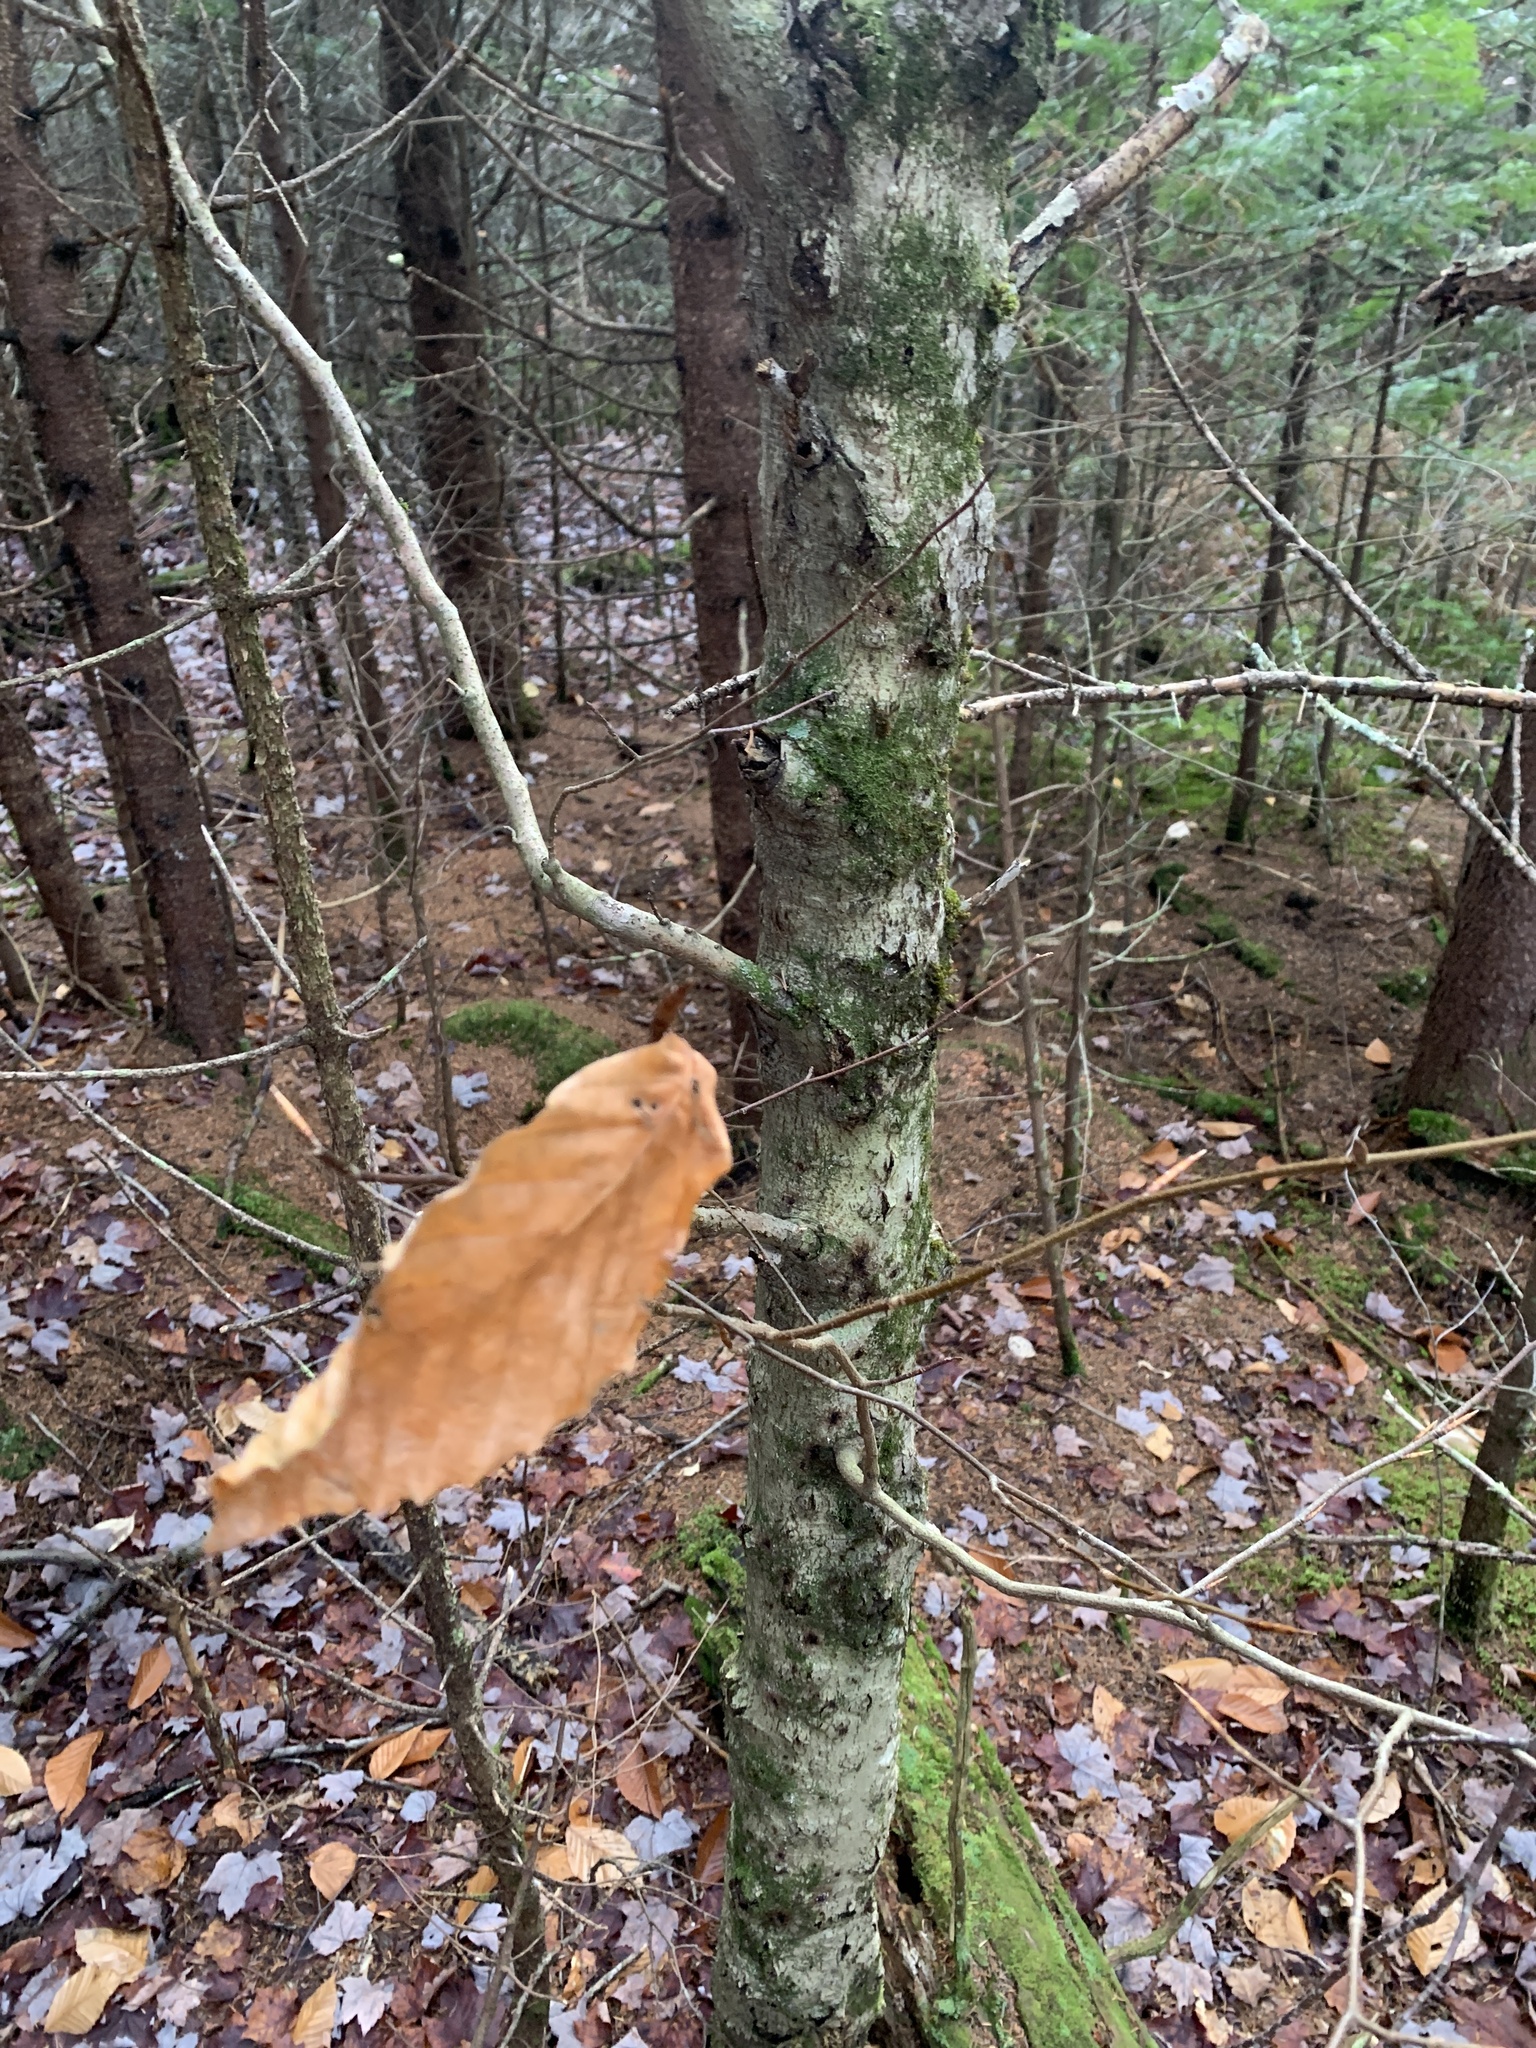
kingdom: Plantae
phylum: Tracheophyta
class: Magnoliopsida
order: Fagales
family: Fagaceae
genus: Fagus
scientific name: Fagus grandifolia
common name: American beech
